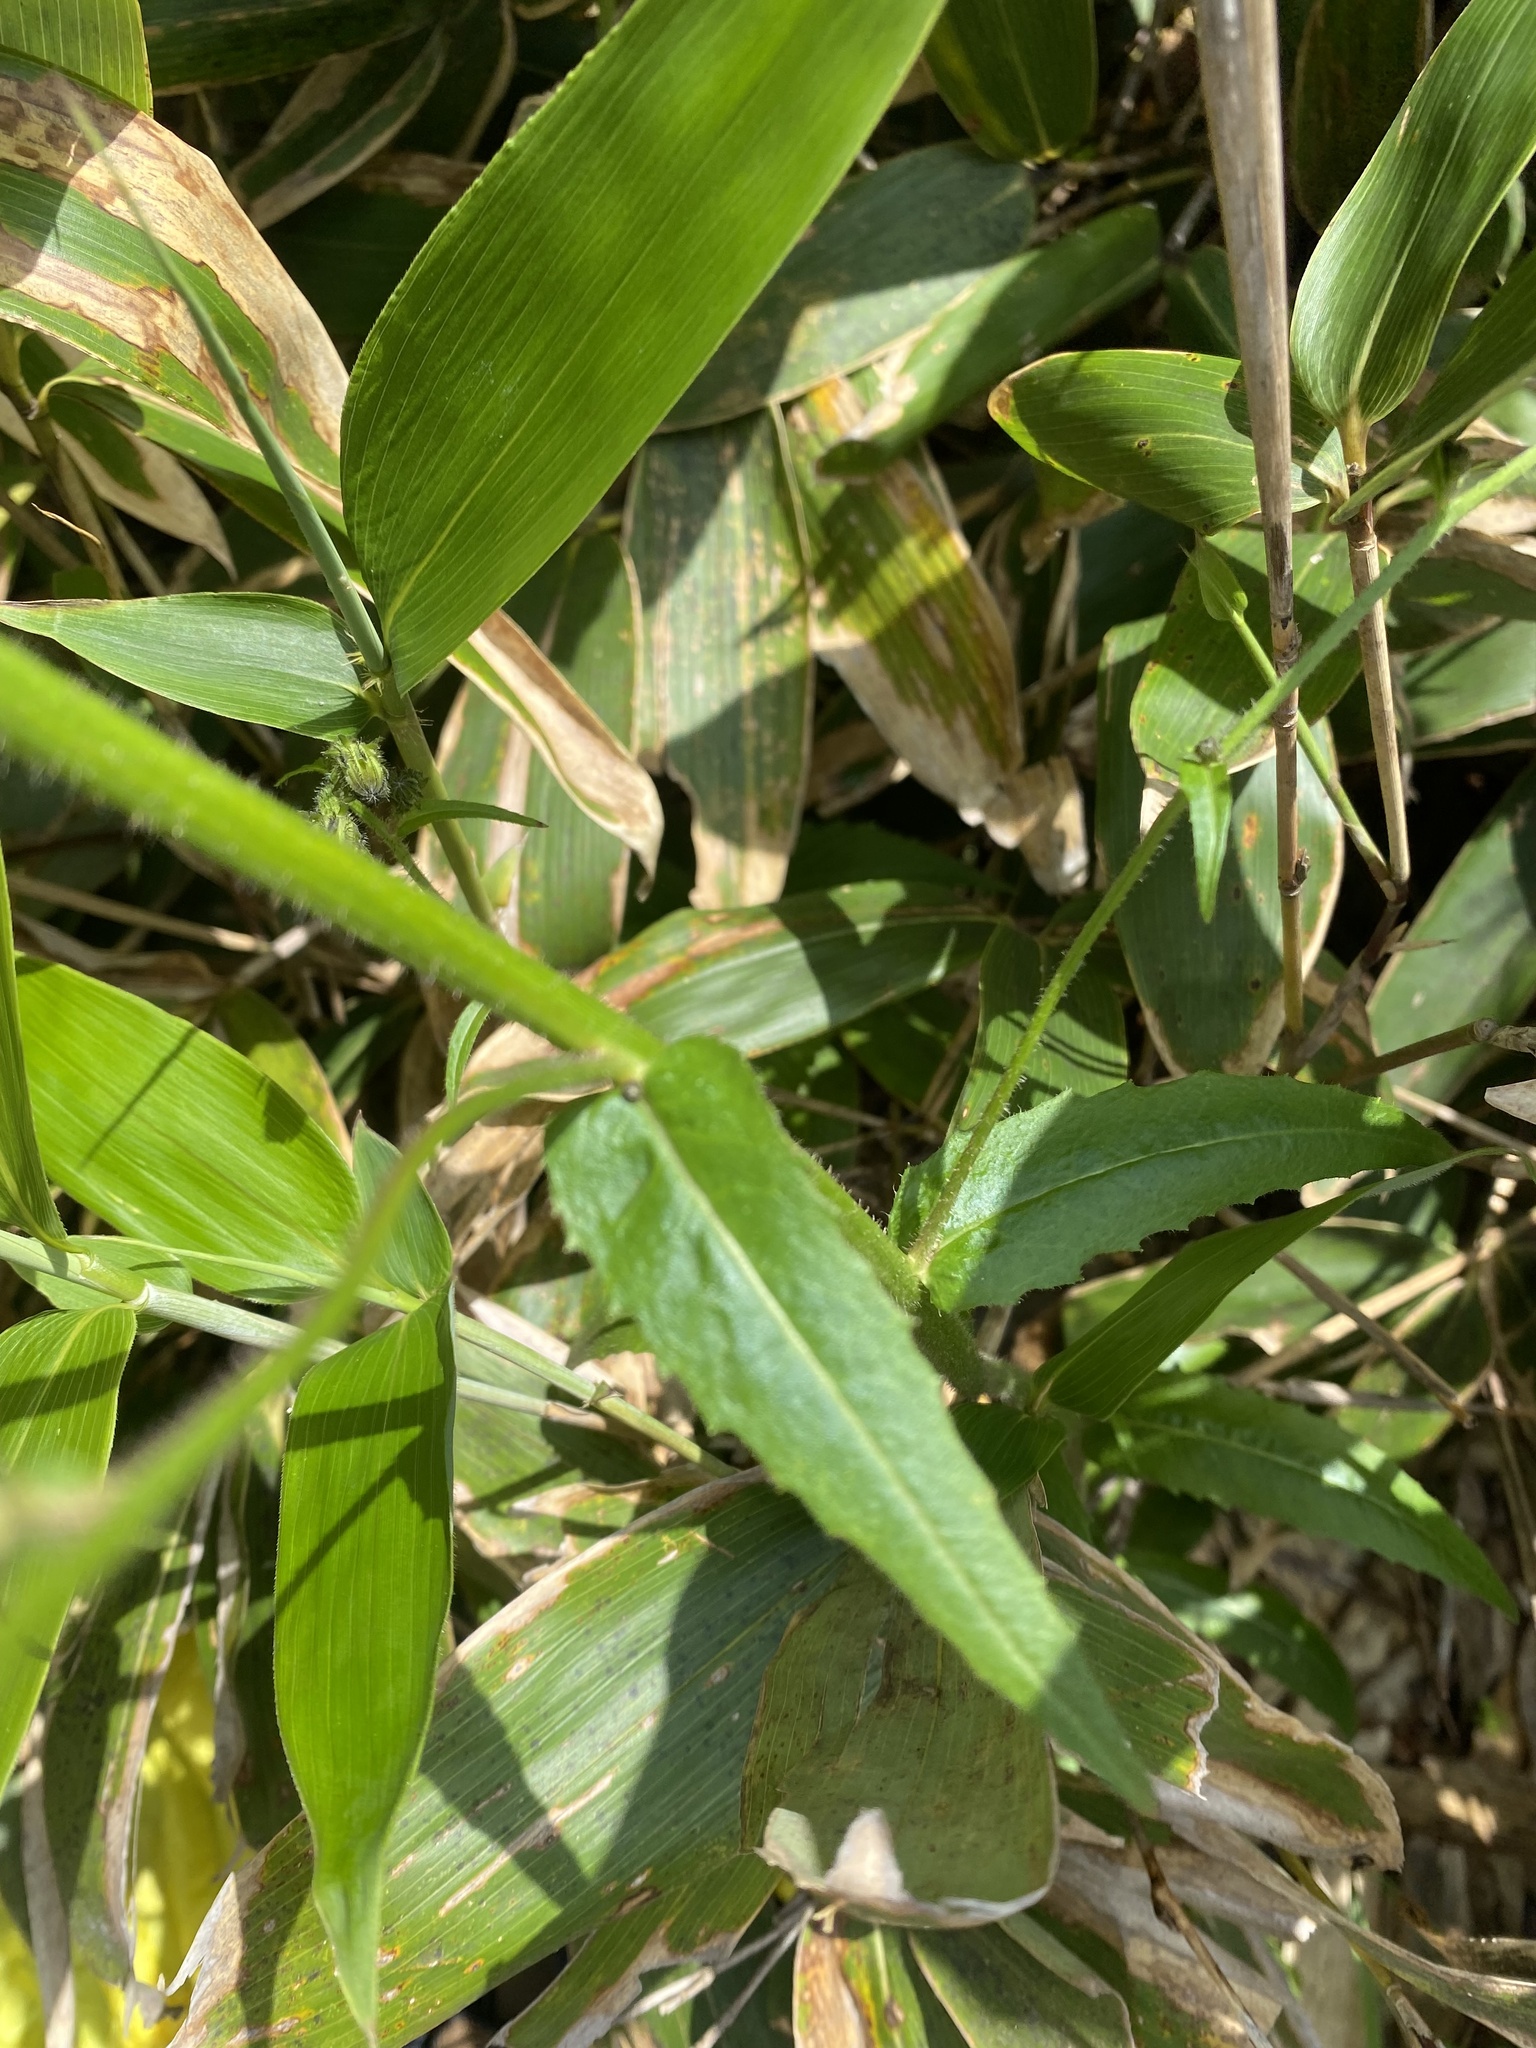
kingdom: Plantae
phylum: Tracheophyta
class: Magnoliopsida
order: Asterales
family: Asteraceae
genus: Picris
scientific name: Picris japonica
